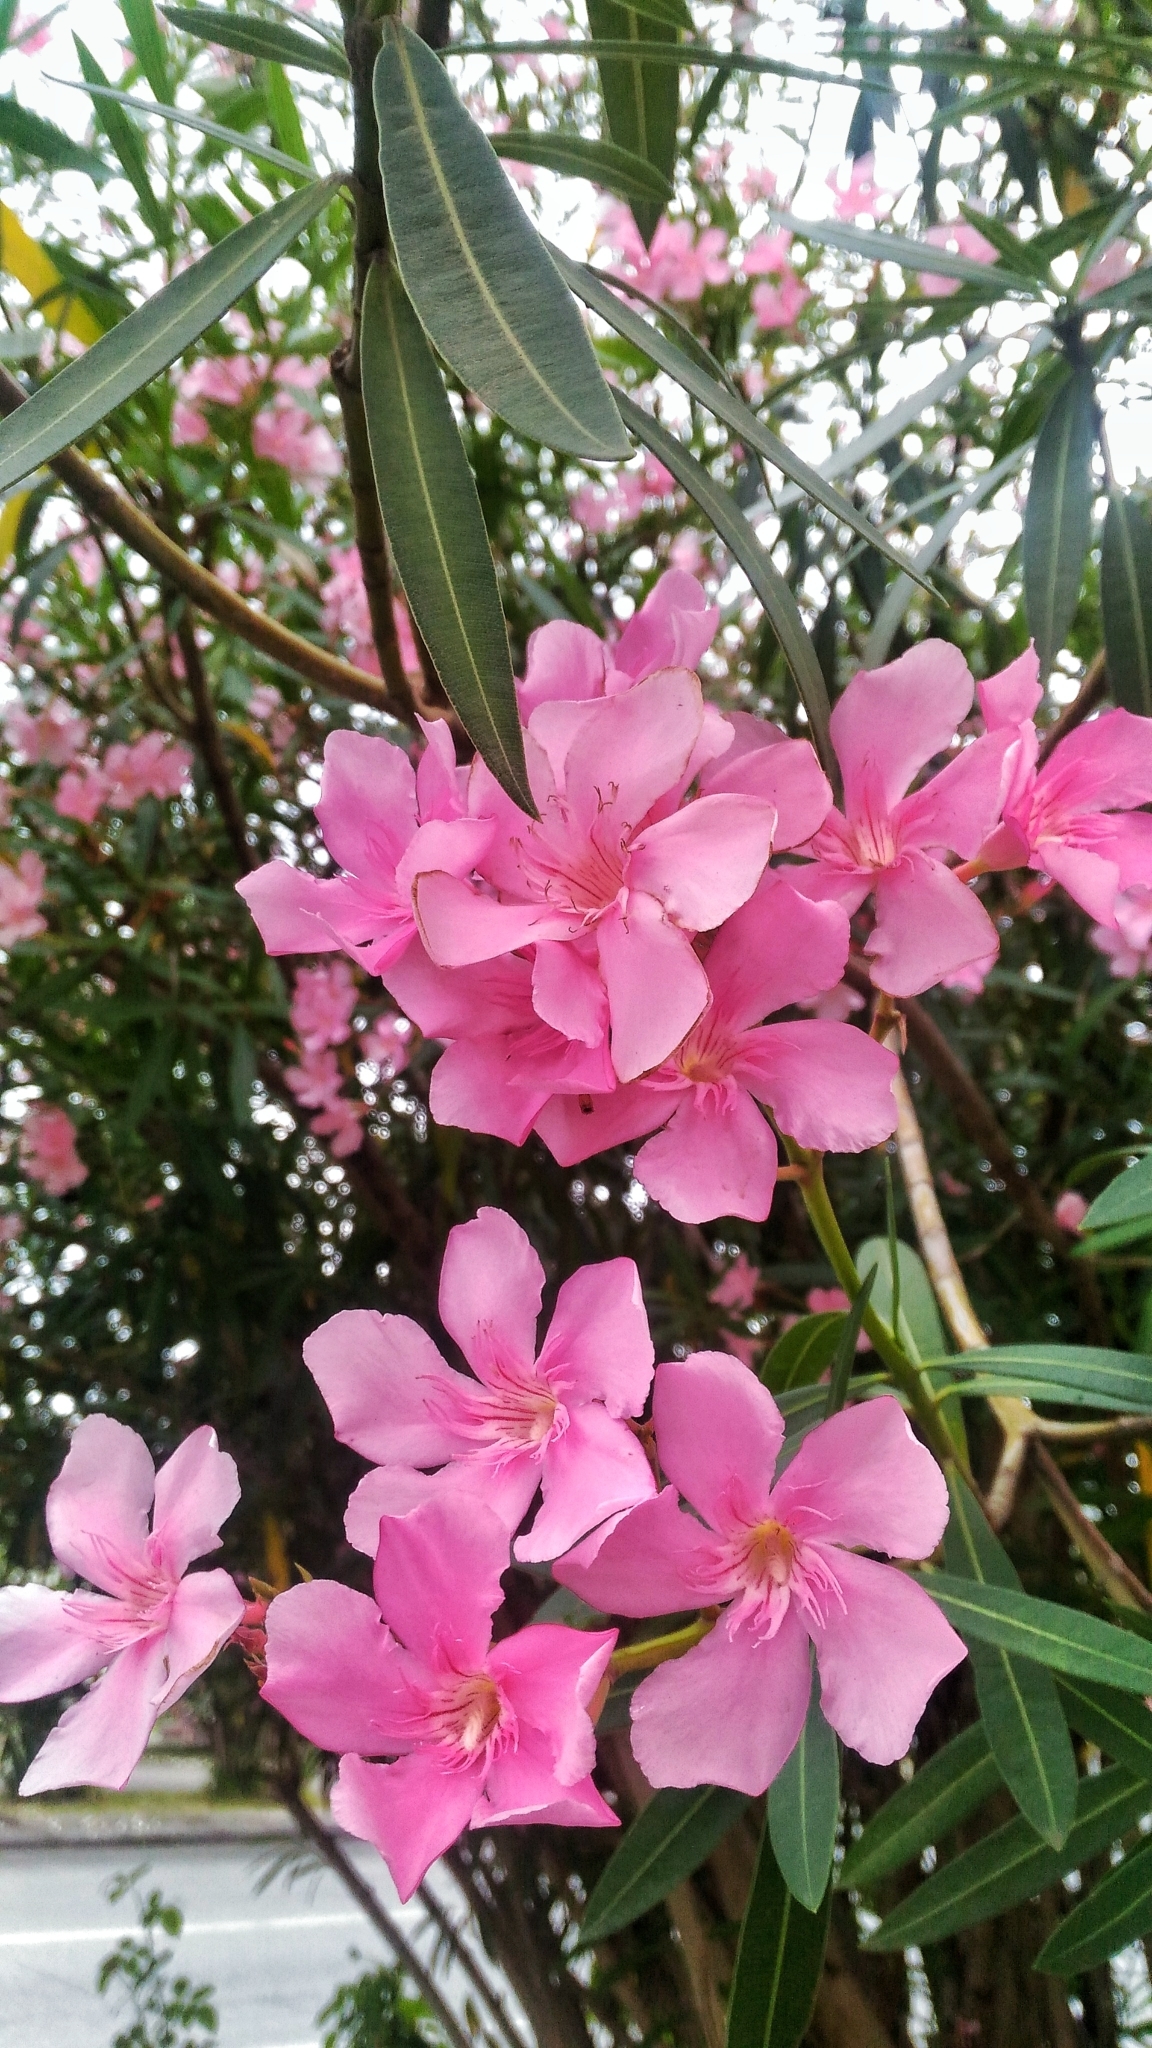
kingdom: Plantae
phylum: Tracheophyta
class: Magnoliopsida
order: Gentianales
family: Apocynaceae
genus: Nerium
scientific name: Nerium oleander
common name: Oleander
